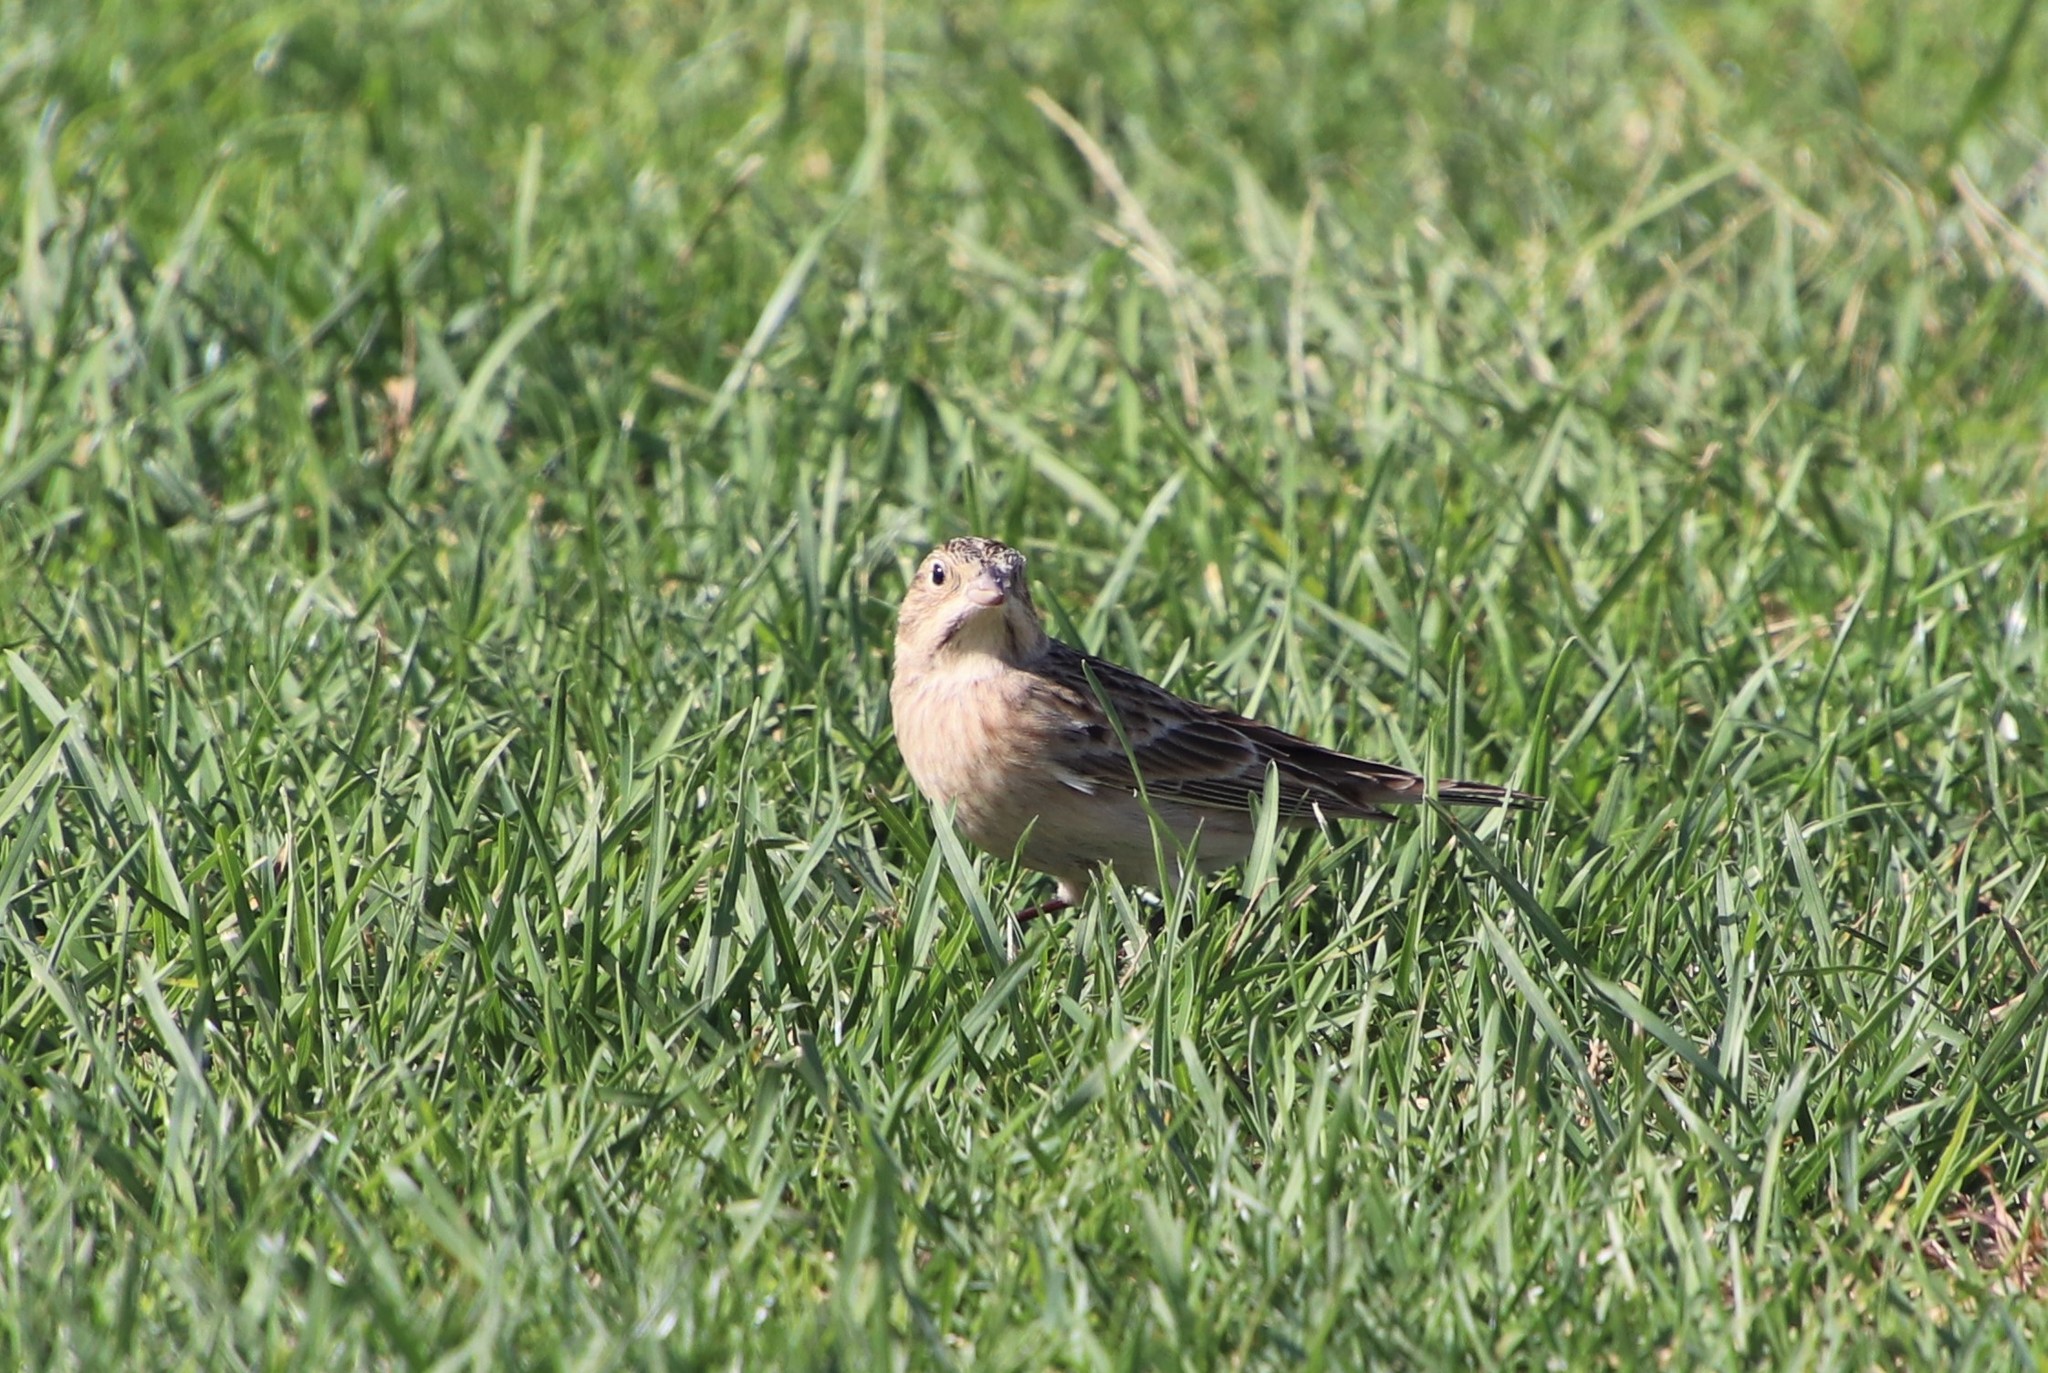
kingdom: Animalia
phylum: Chordata
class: Aves
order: Passeriformes
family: Calcariidae
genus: Calcarius
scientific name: Calcarius ornatus
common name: Chestnut-collared longspur
